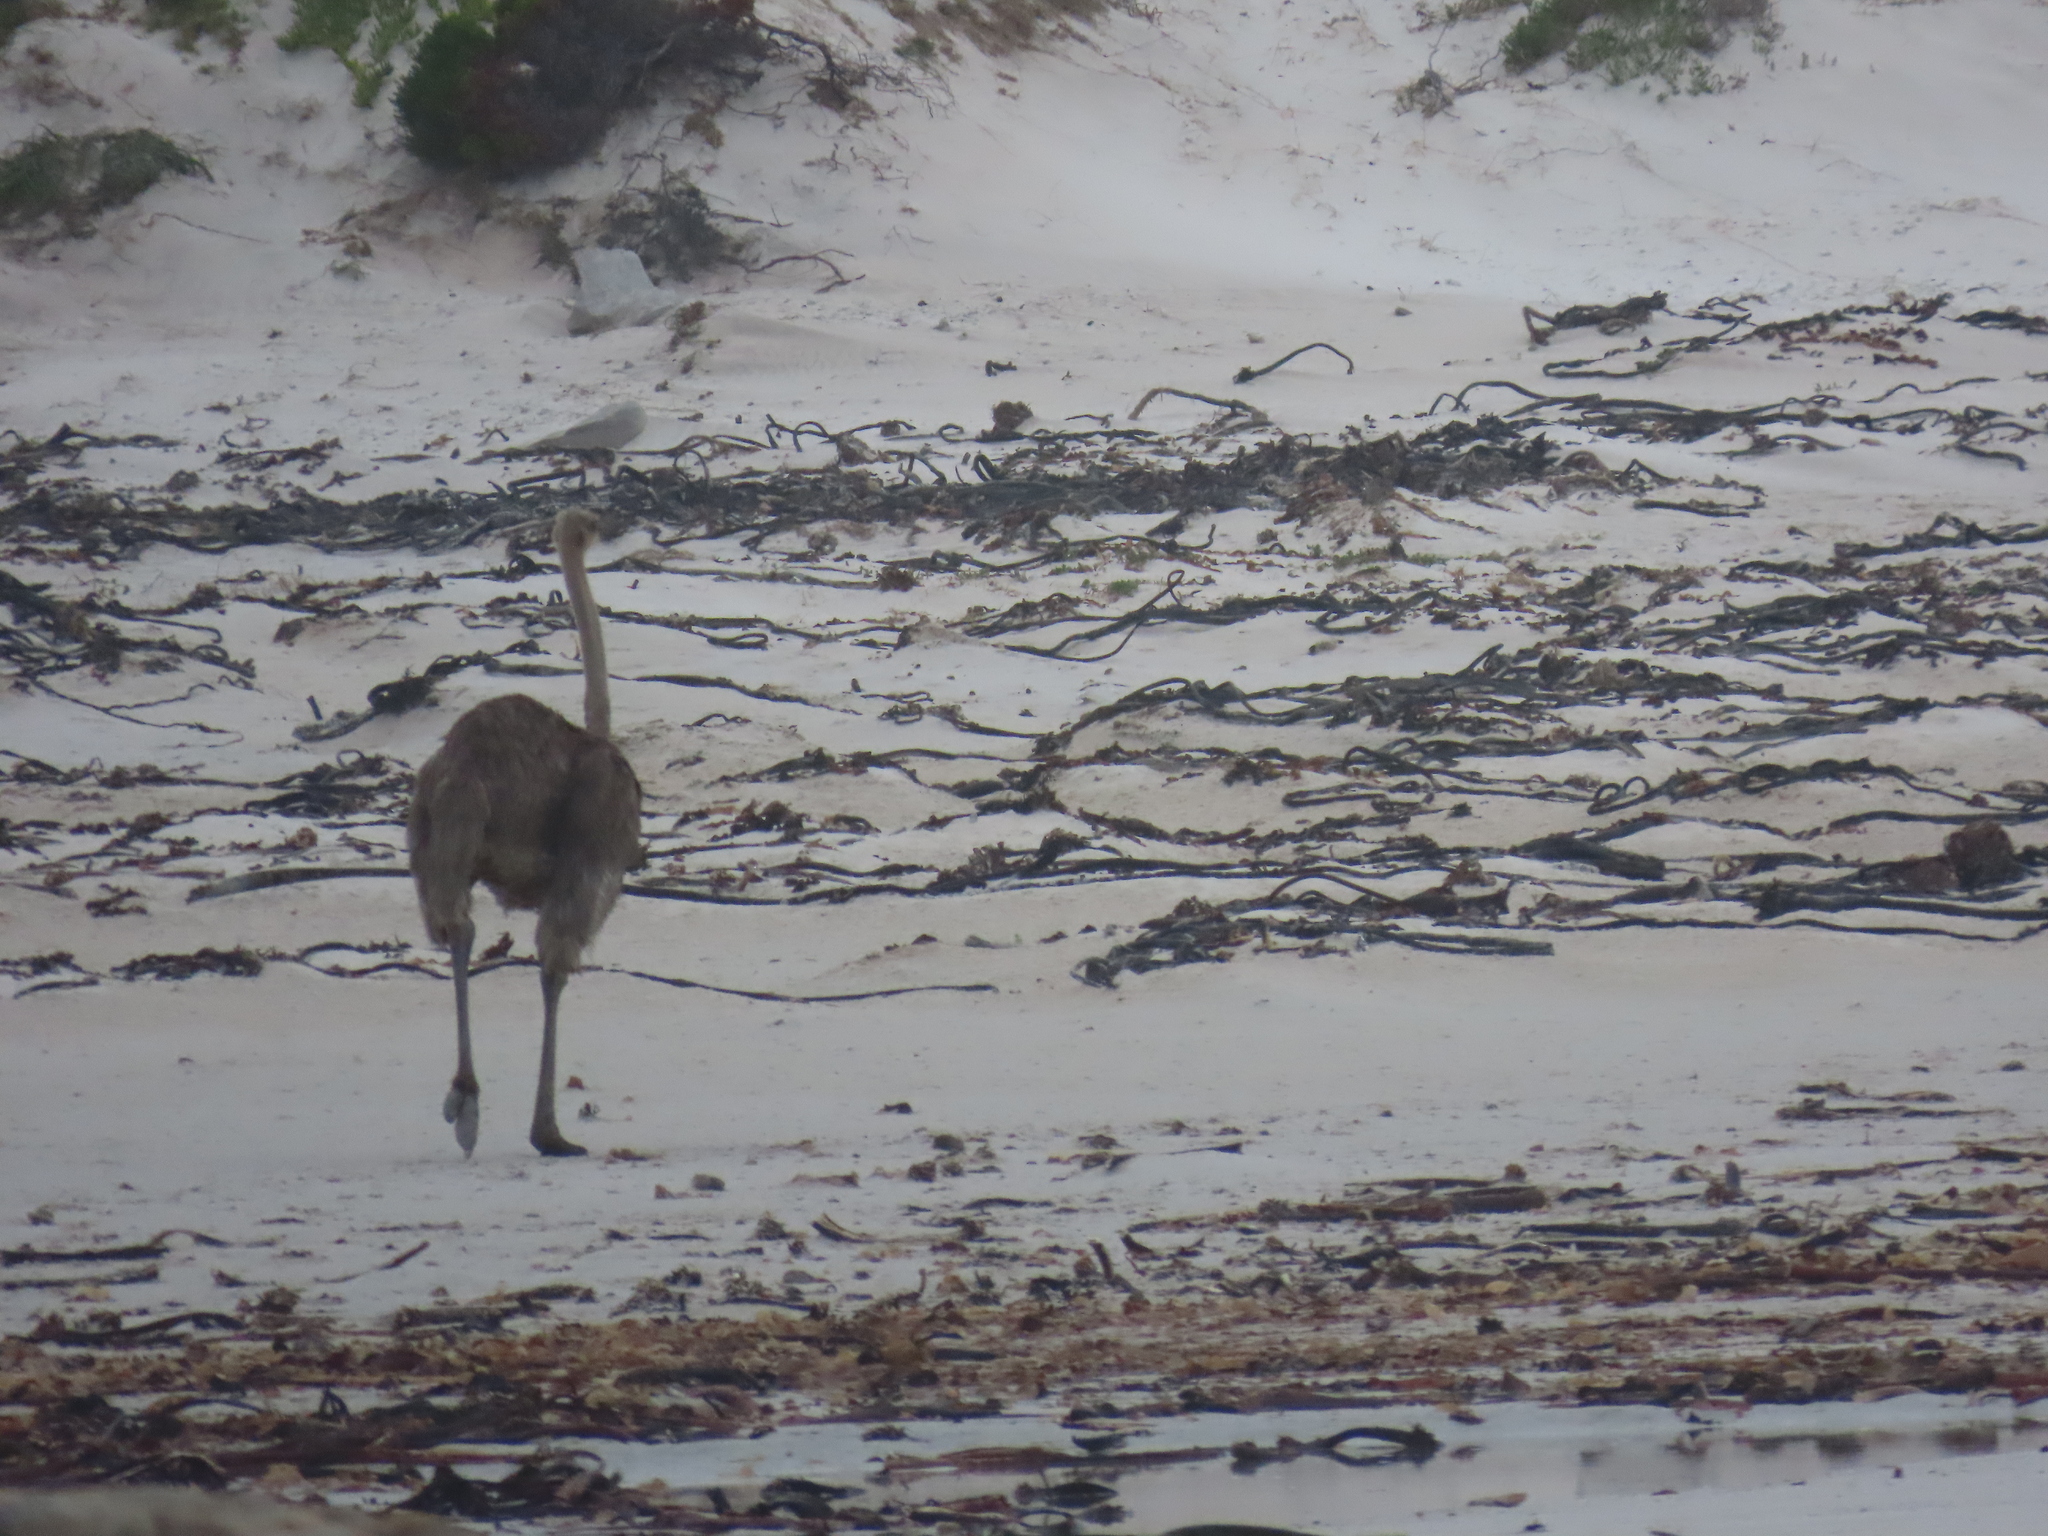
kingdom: Animalia
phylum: Chordata
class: Aves
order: Struthioniformes
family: Struthionidae
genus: Struthio
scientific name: Struthio camelus
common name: Common ostrich
